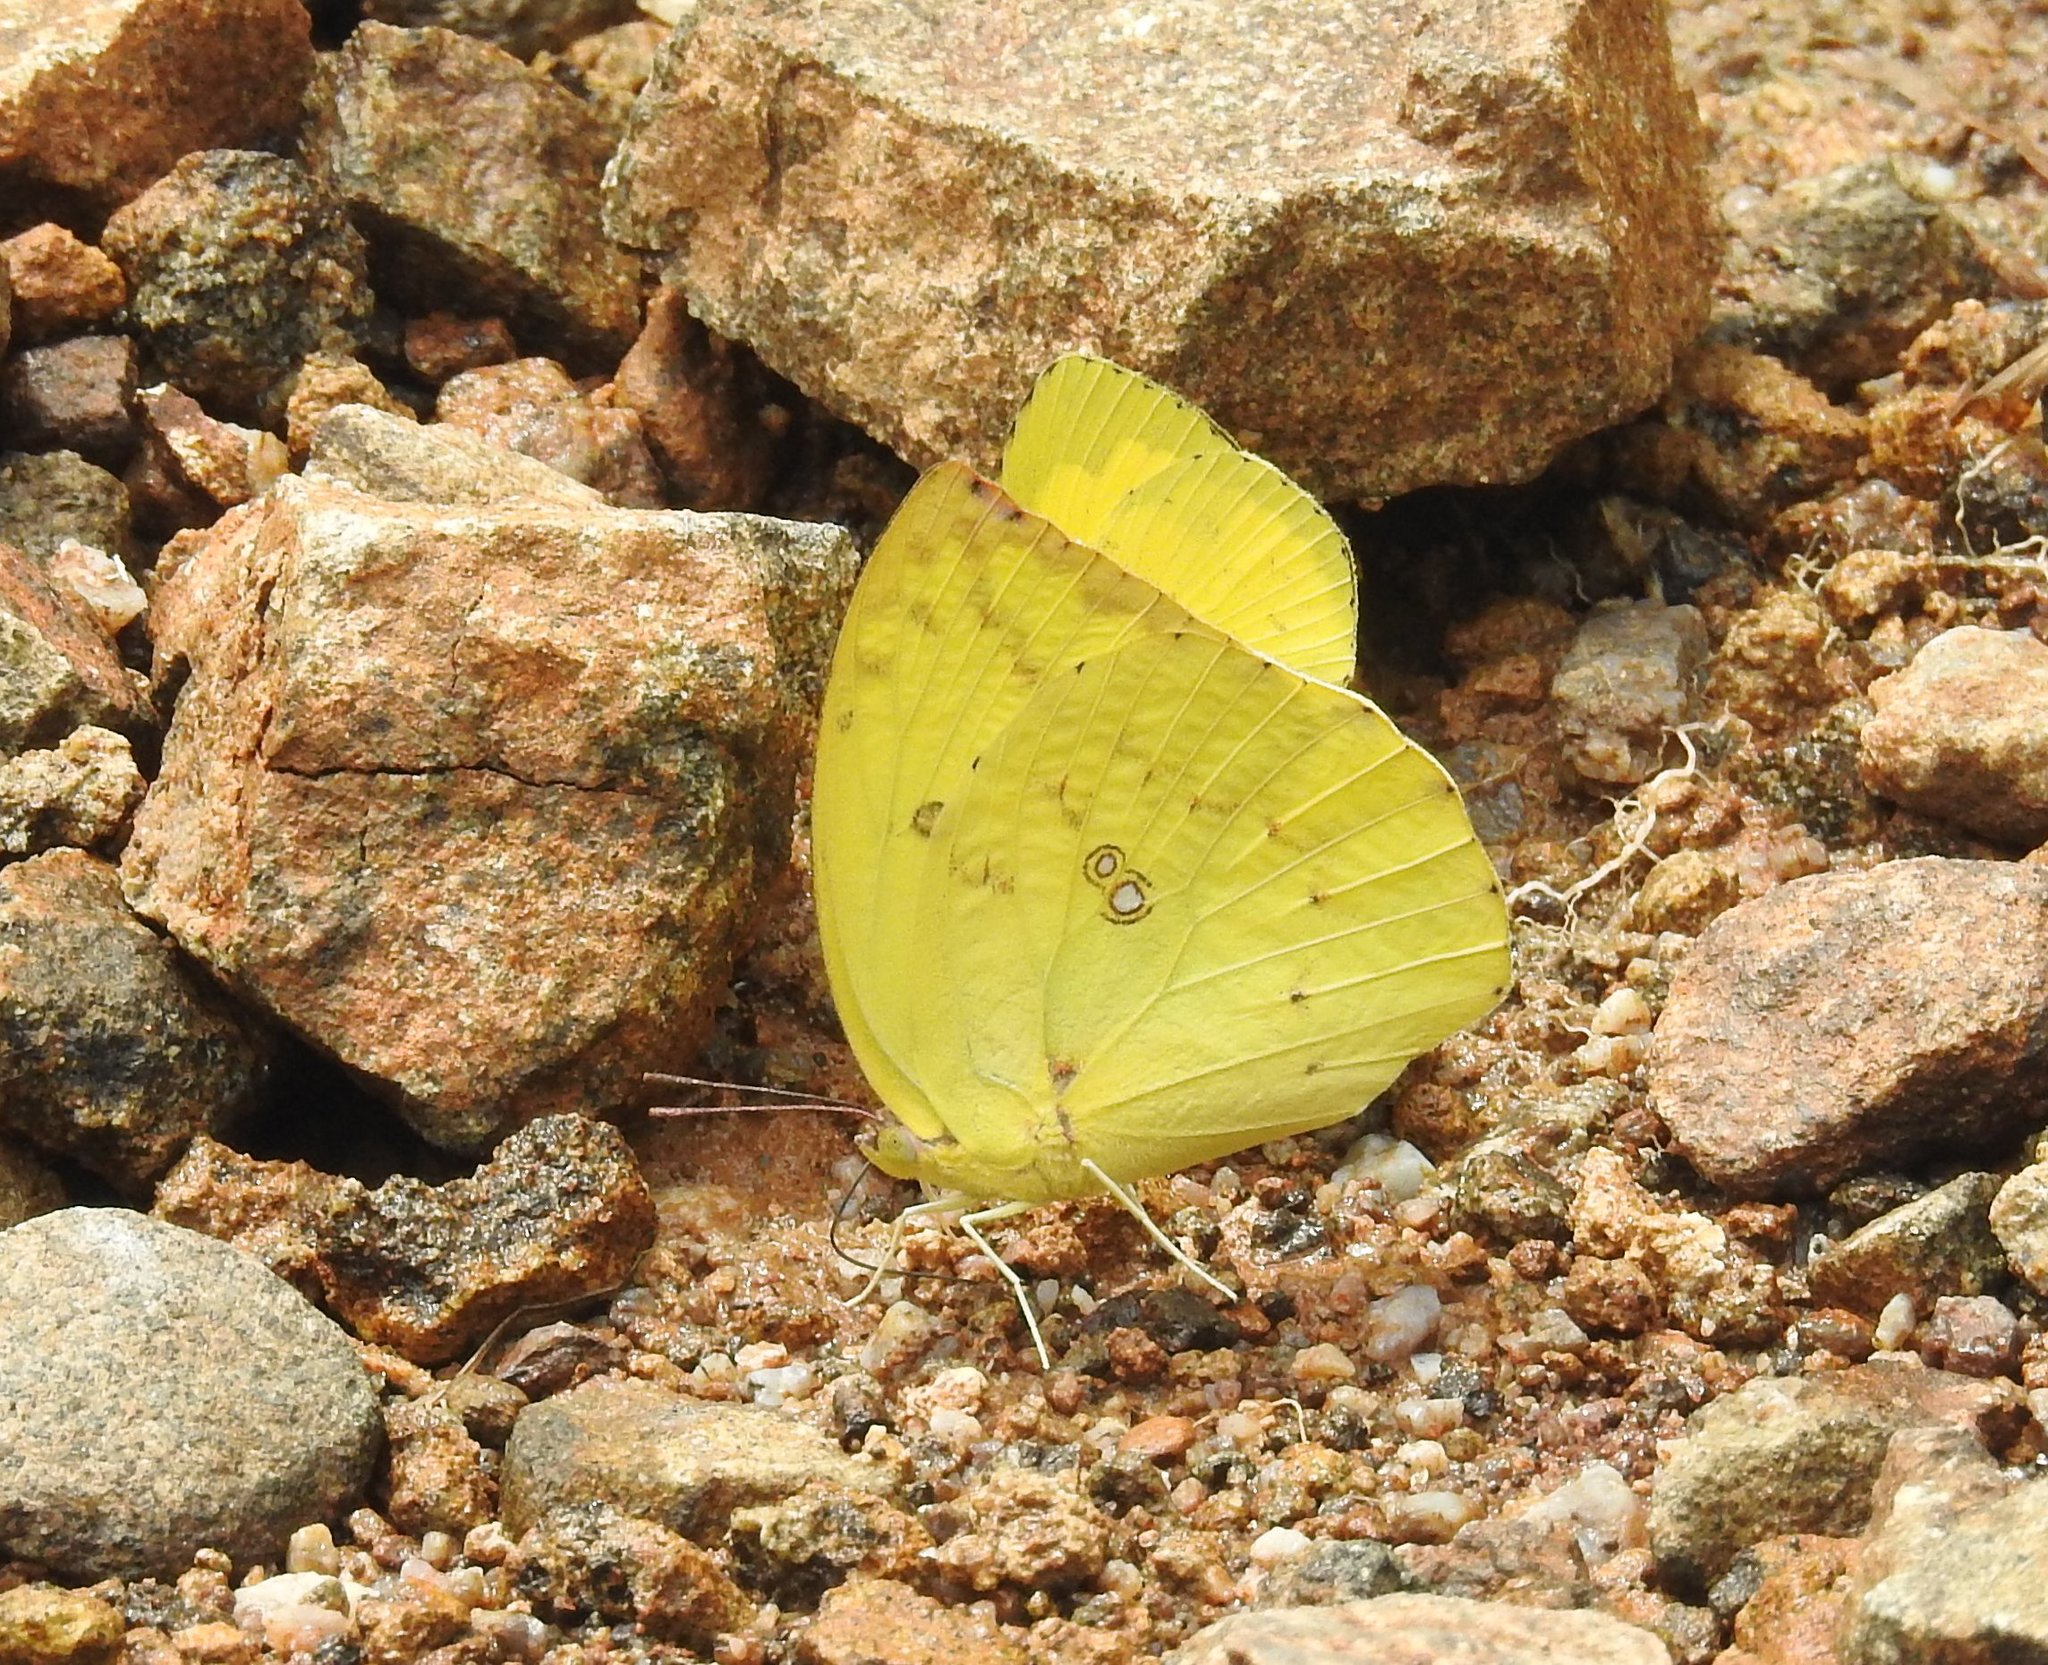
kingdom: Animalia
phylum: Arthropoda
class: Insecta
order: Lepidoptera
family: Pieridae
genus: Catopsilia
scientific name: Catopsilia pomona
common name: Common emigrant
